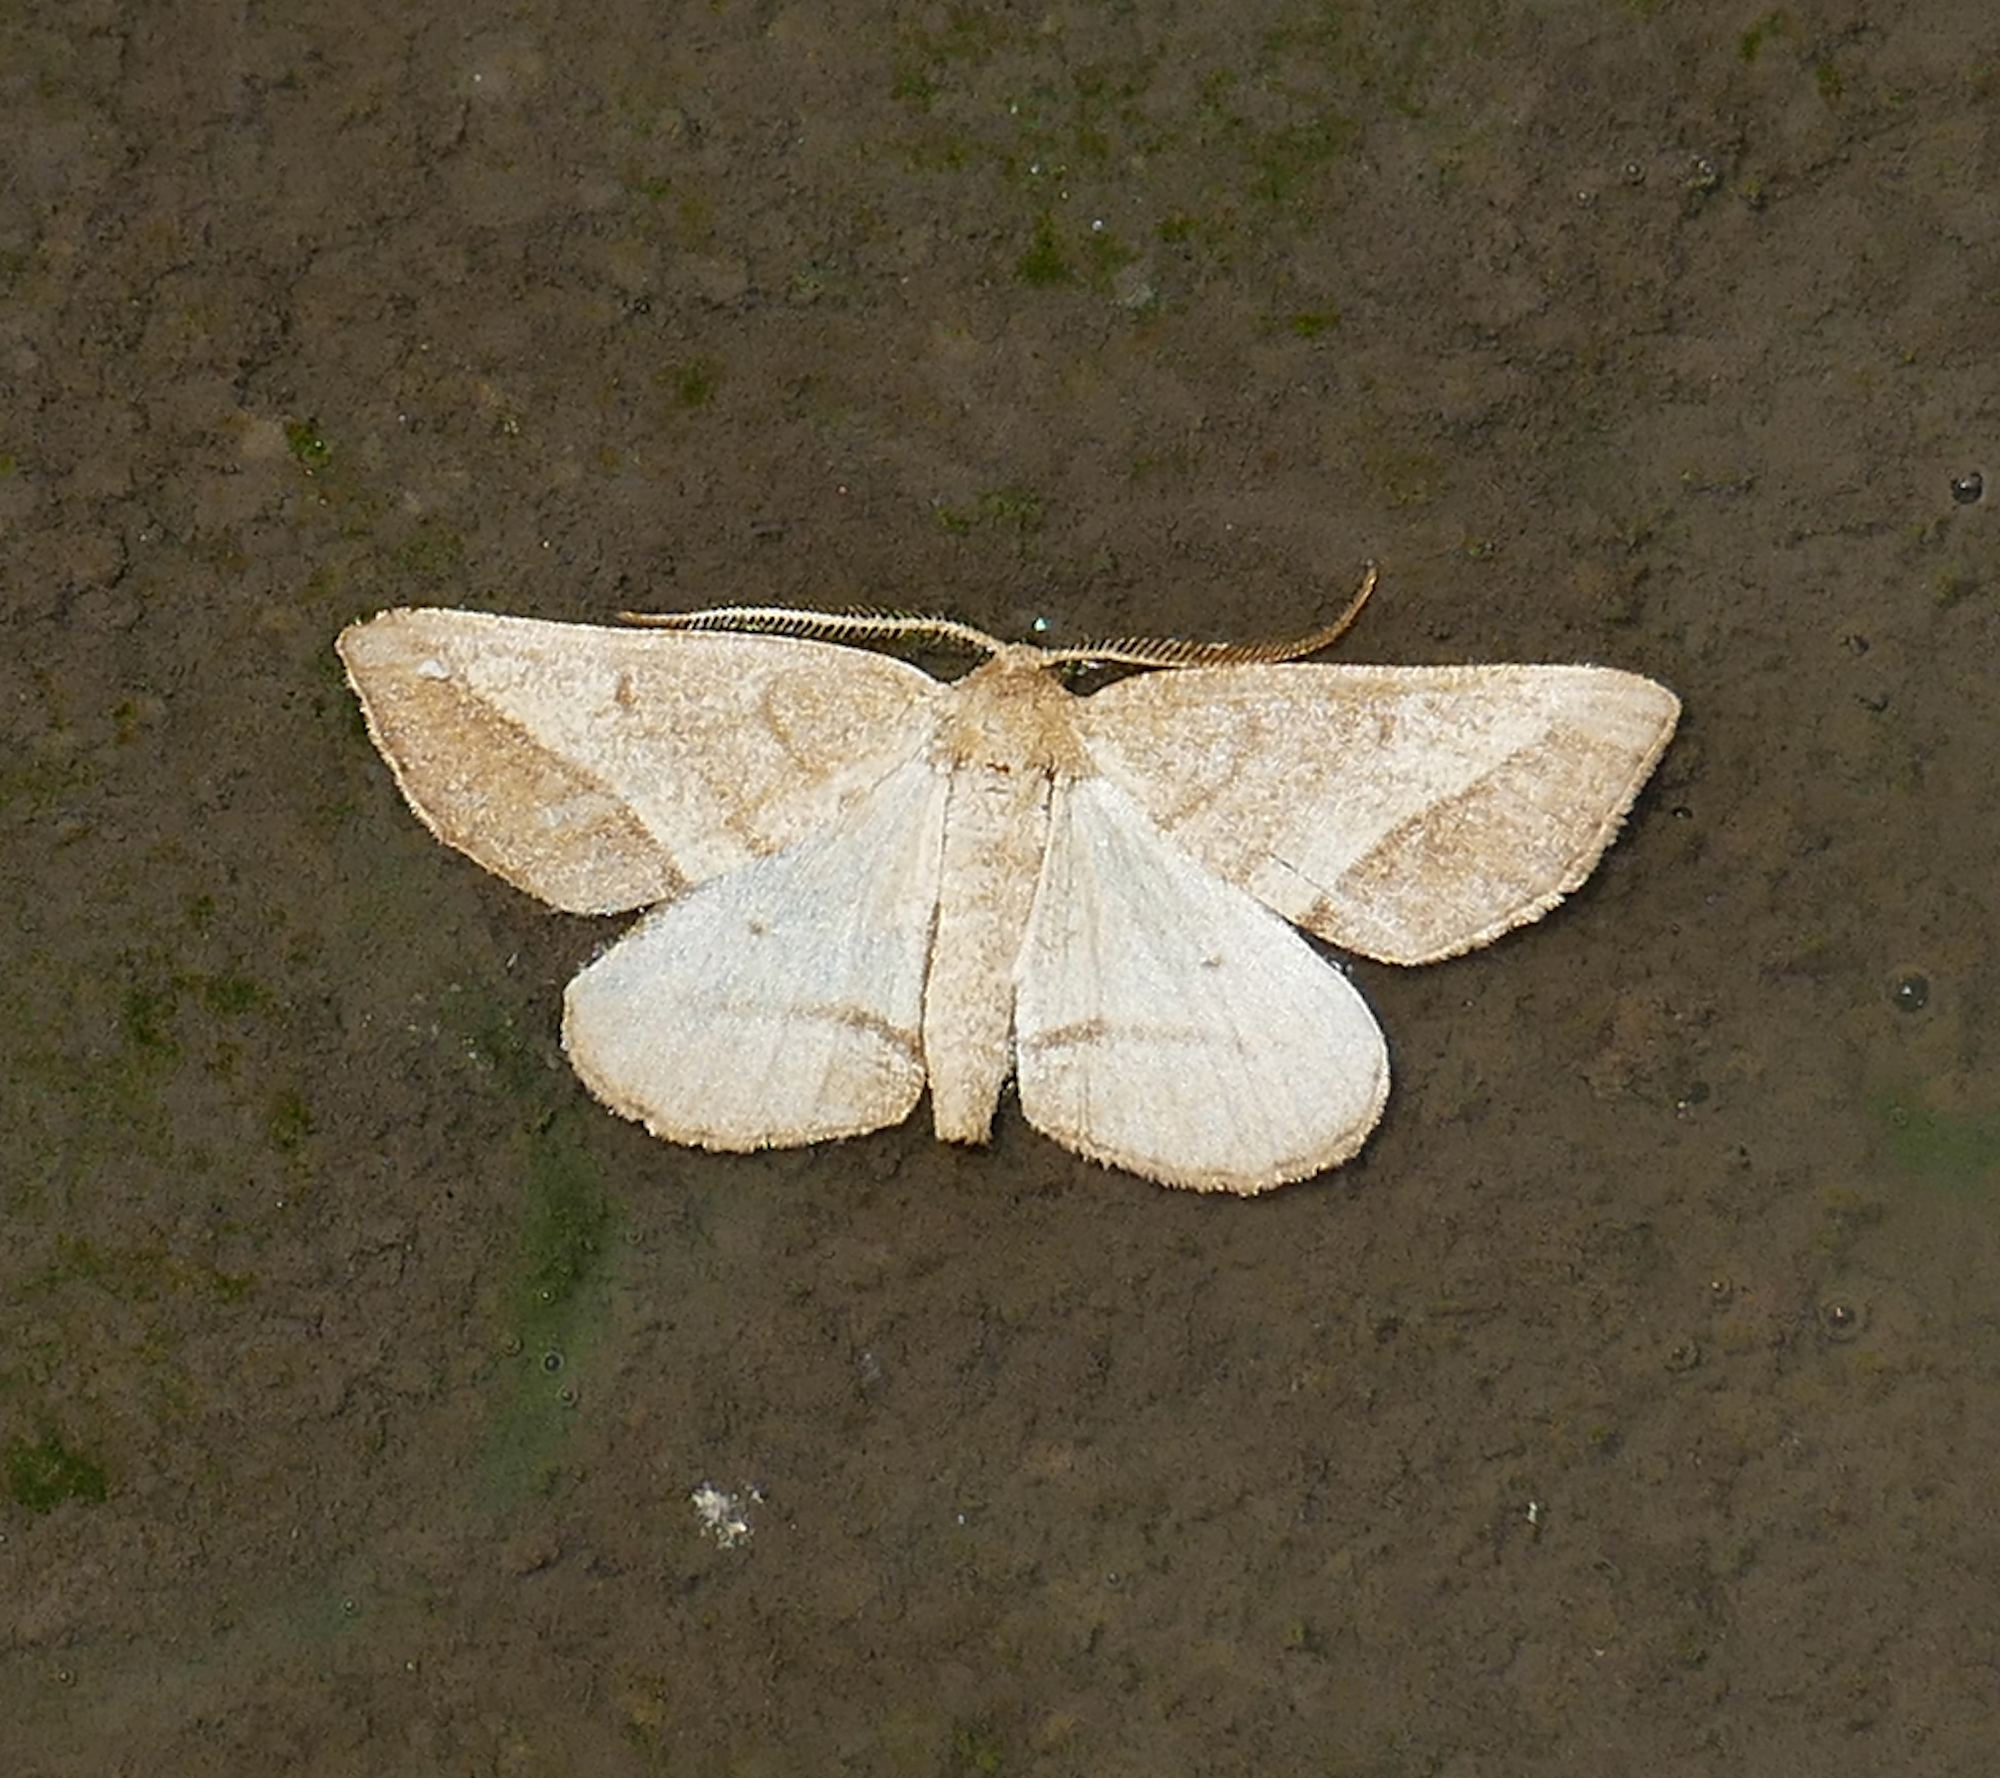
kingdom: Animalia
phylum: Arthropoda
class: Insecta
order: Lepidoptera
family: Geometridae
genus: Macaria
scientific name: Macaria varadaria
